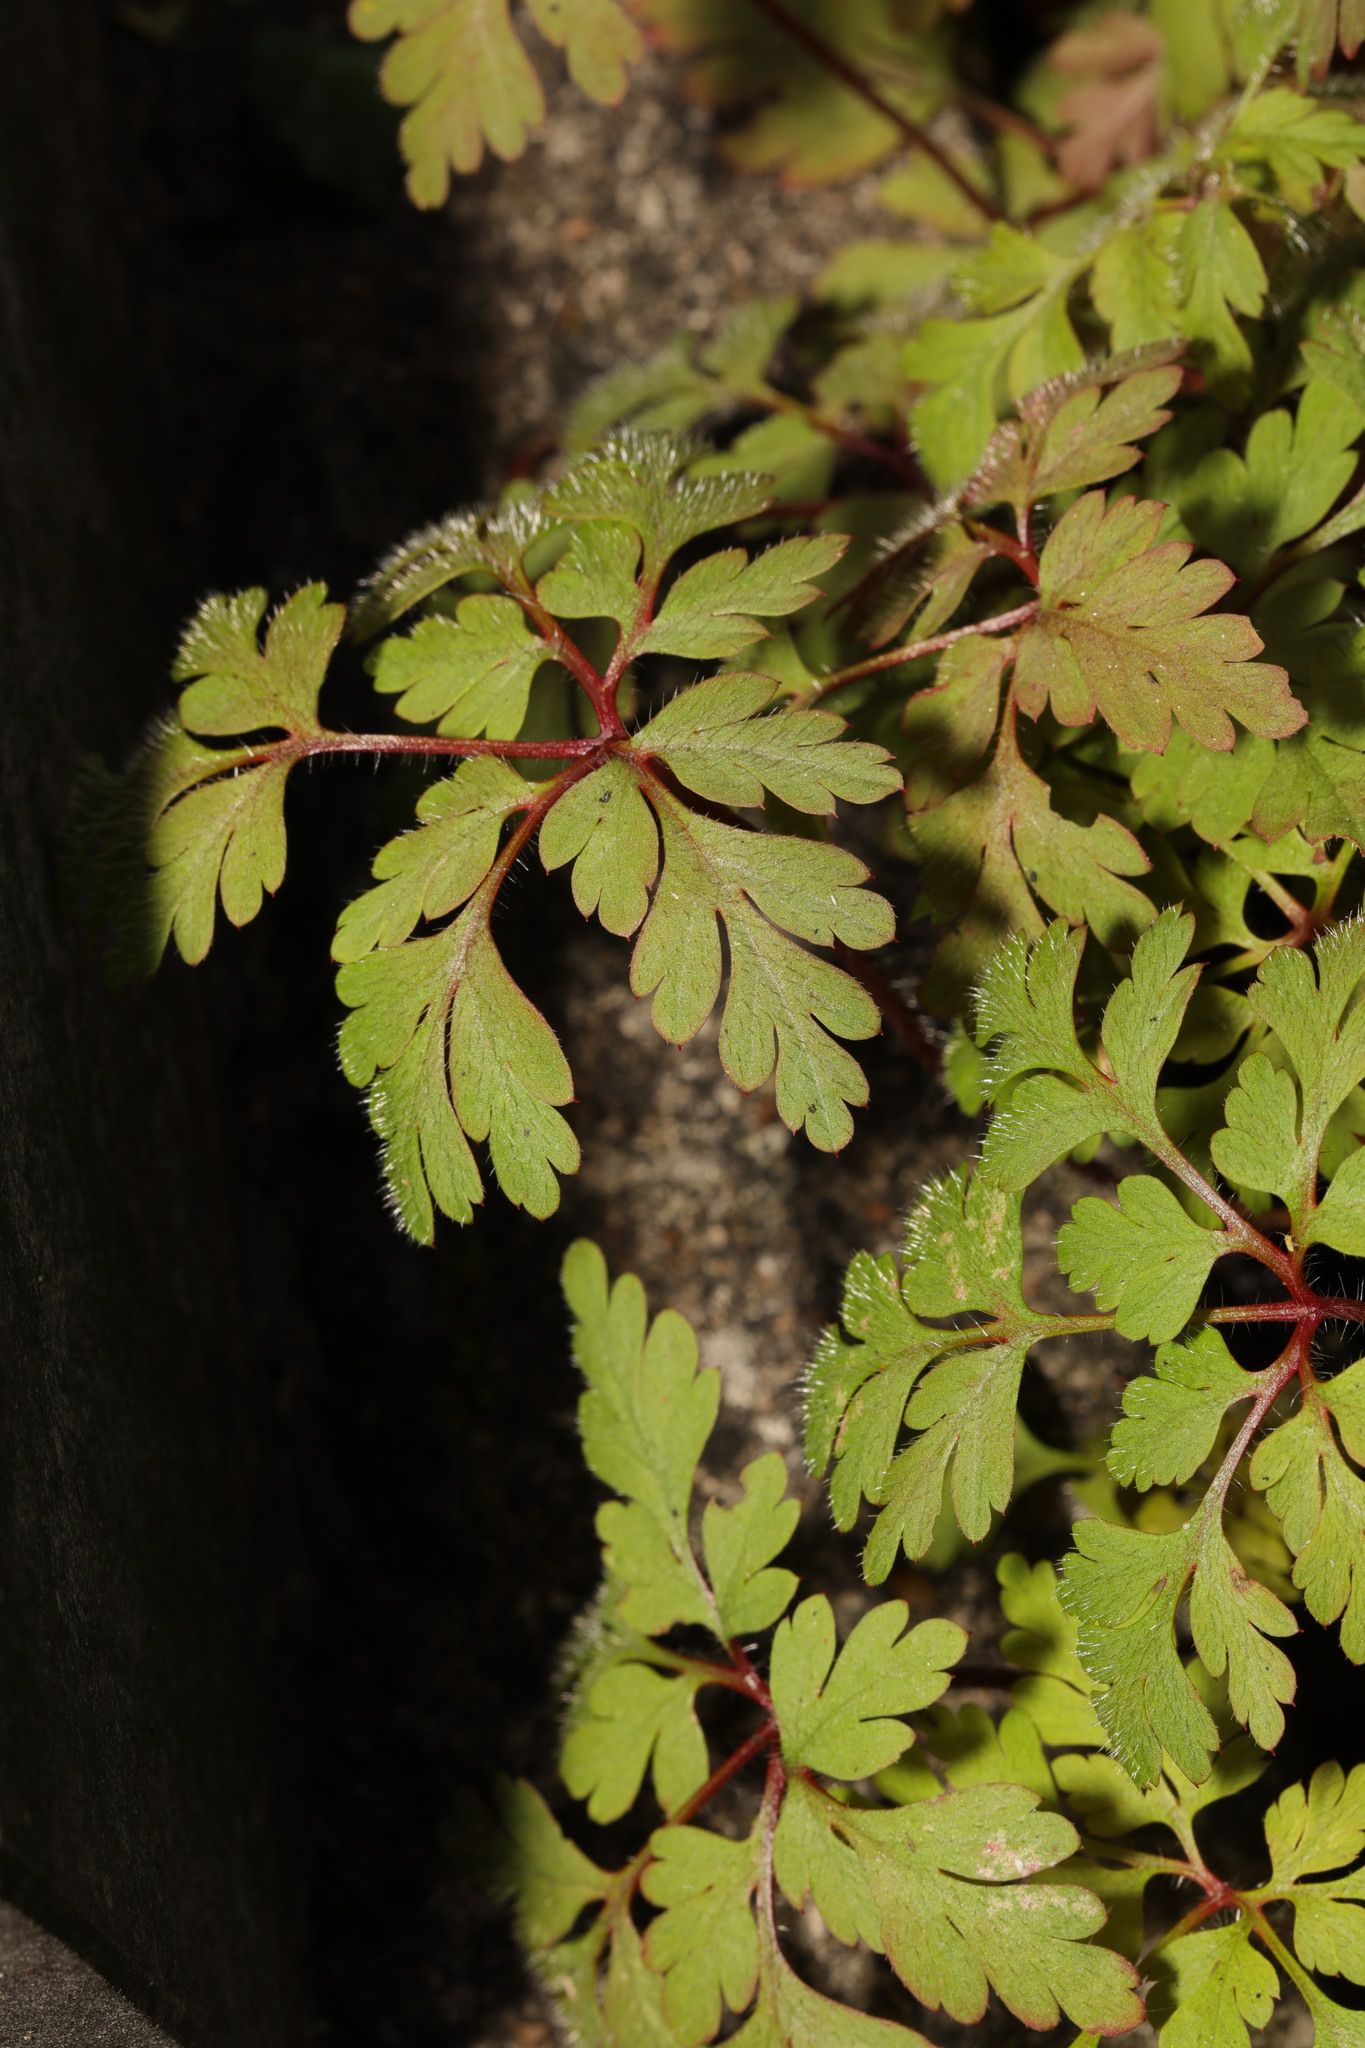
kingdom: Plantae
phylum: Tracheophyta
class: Magnoliopsida
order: Geraniales
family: Geraniaceae
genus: Geranium
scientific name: Geranium robertianum
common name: Herb-robert
